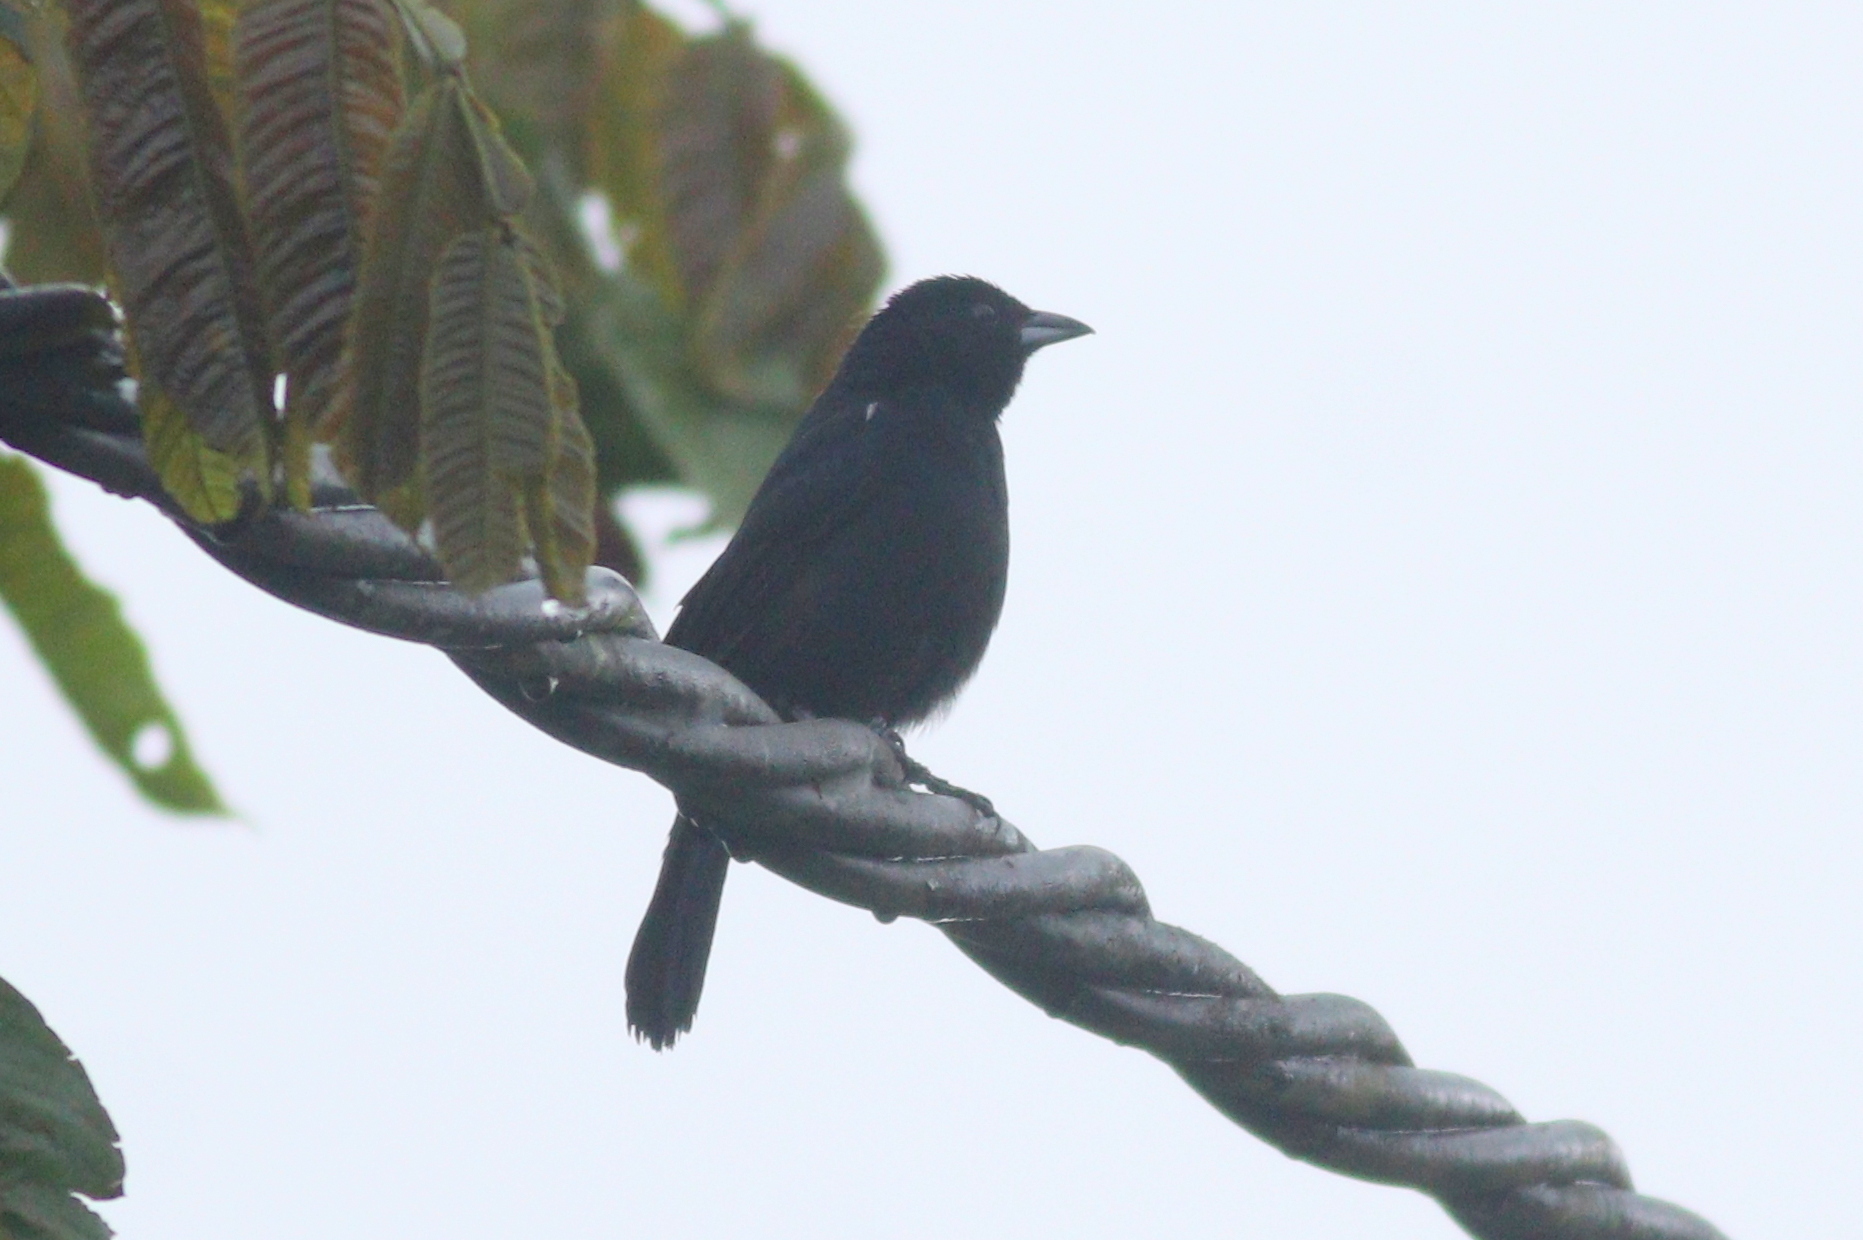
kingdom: Animalia
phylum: Chordata
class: Aves
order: Passeriformes
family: Thraupidae
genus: Tachyphonus
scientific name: Tachyphonus rufus
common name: White-lined tanager
